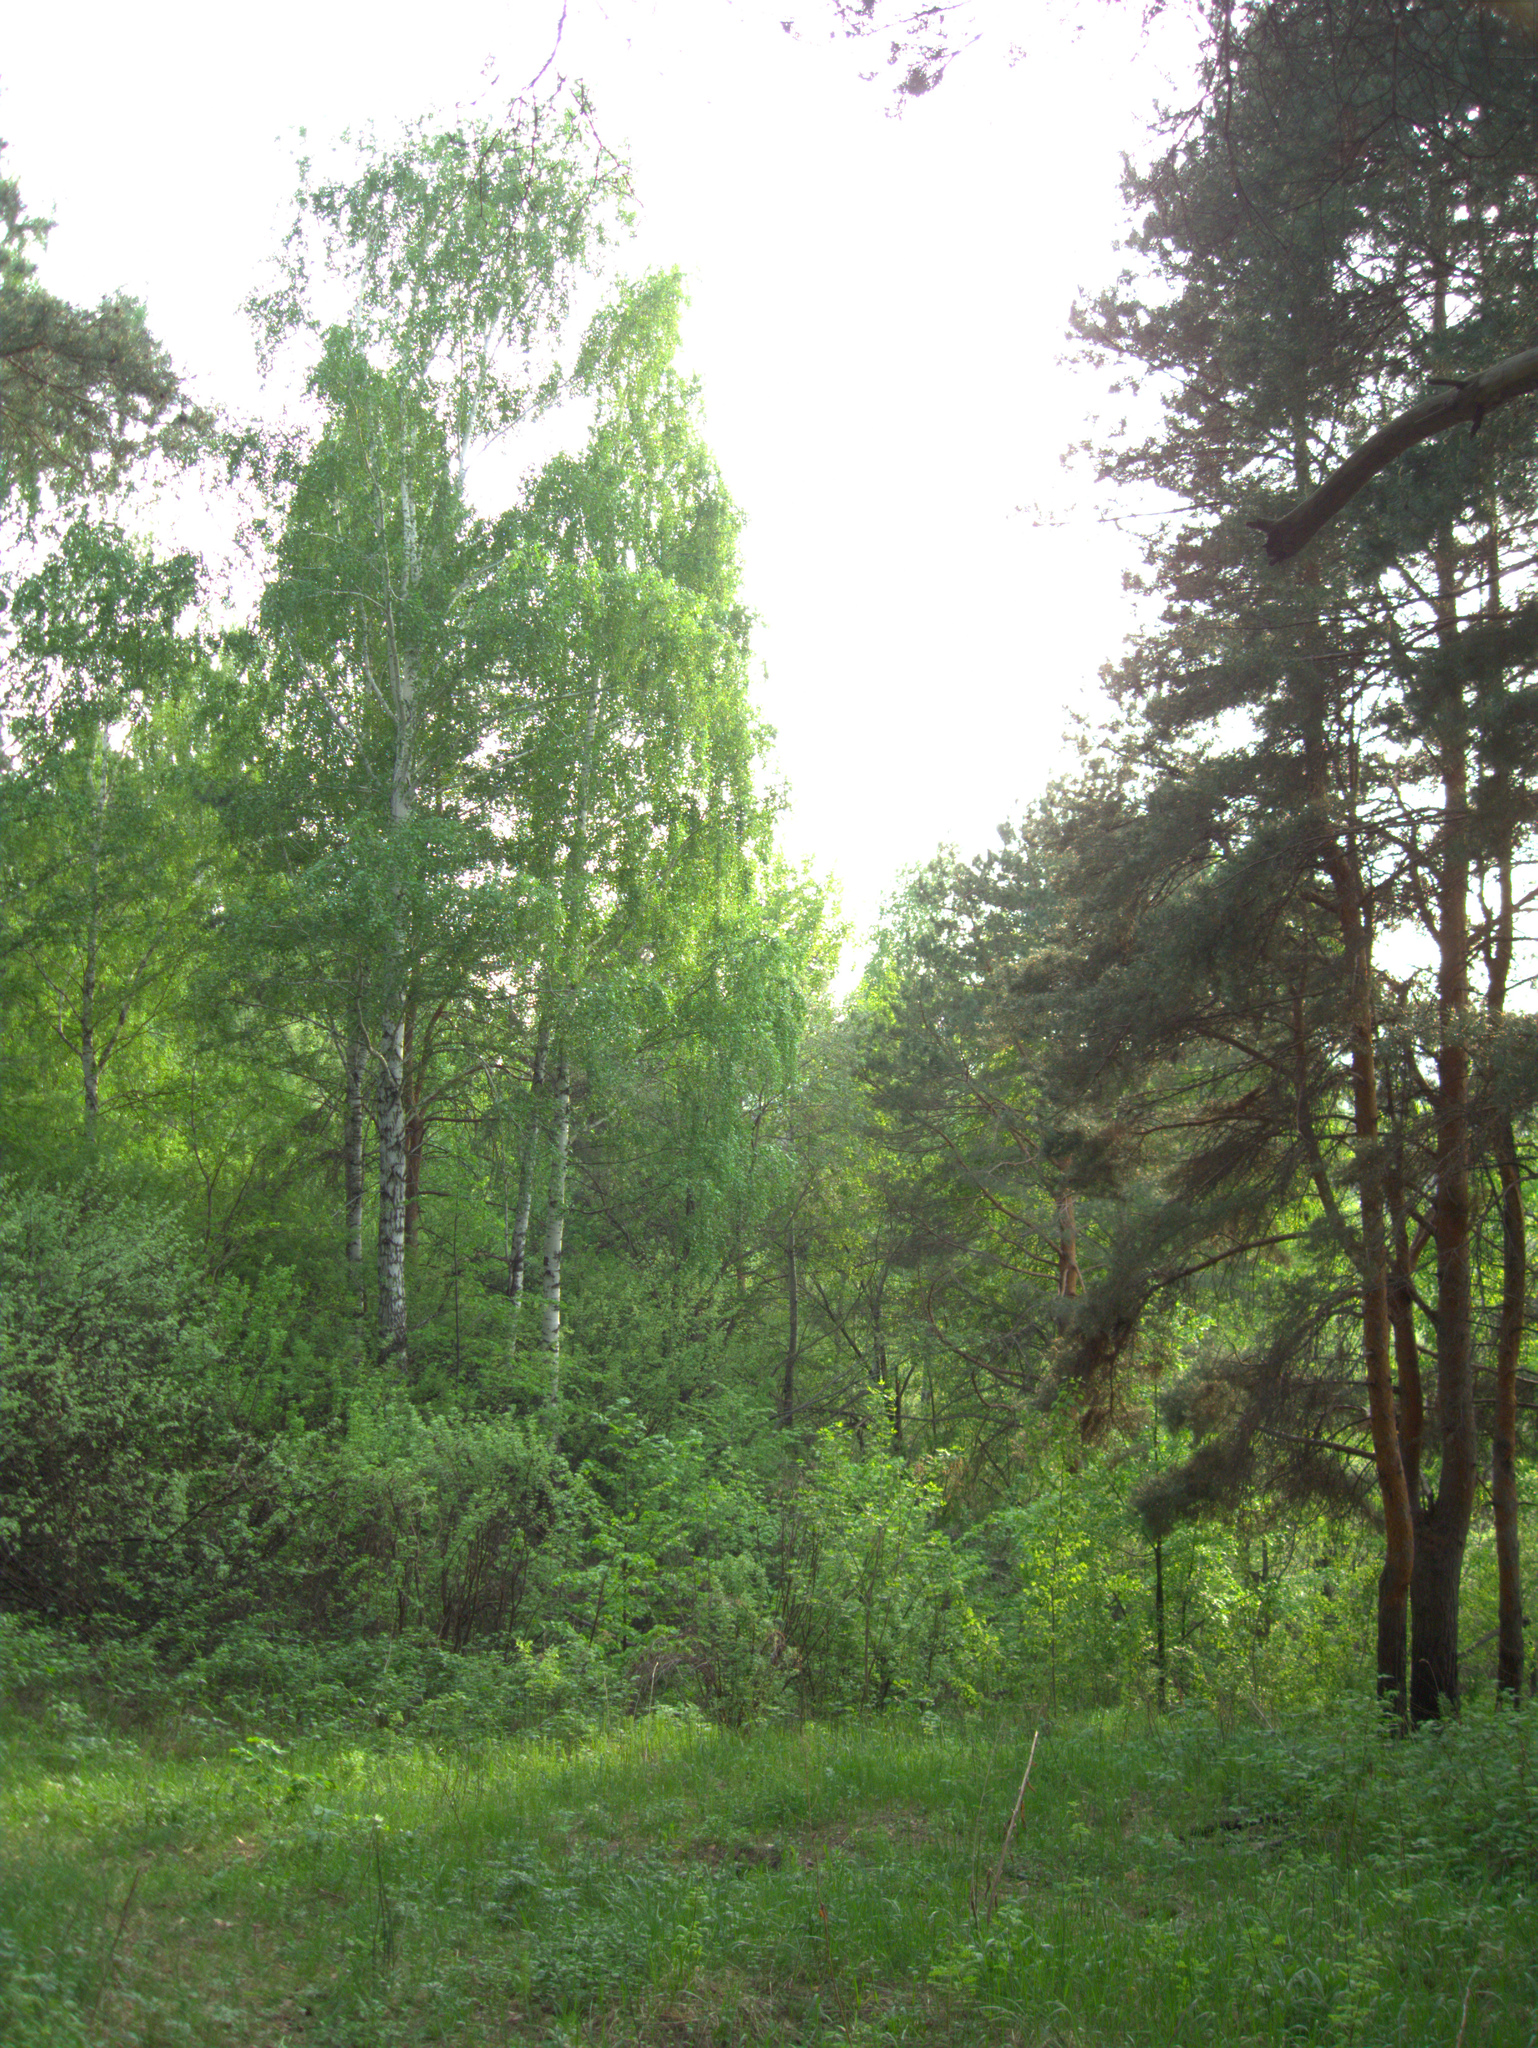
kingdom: Plantae
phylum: Tracheophyta
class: Magnoliopsida
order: Fagales
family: Betulaceae
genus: Betula
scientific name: Betula pendula
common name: Silver birch
